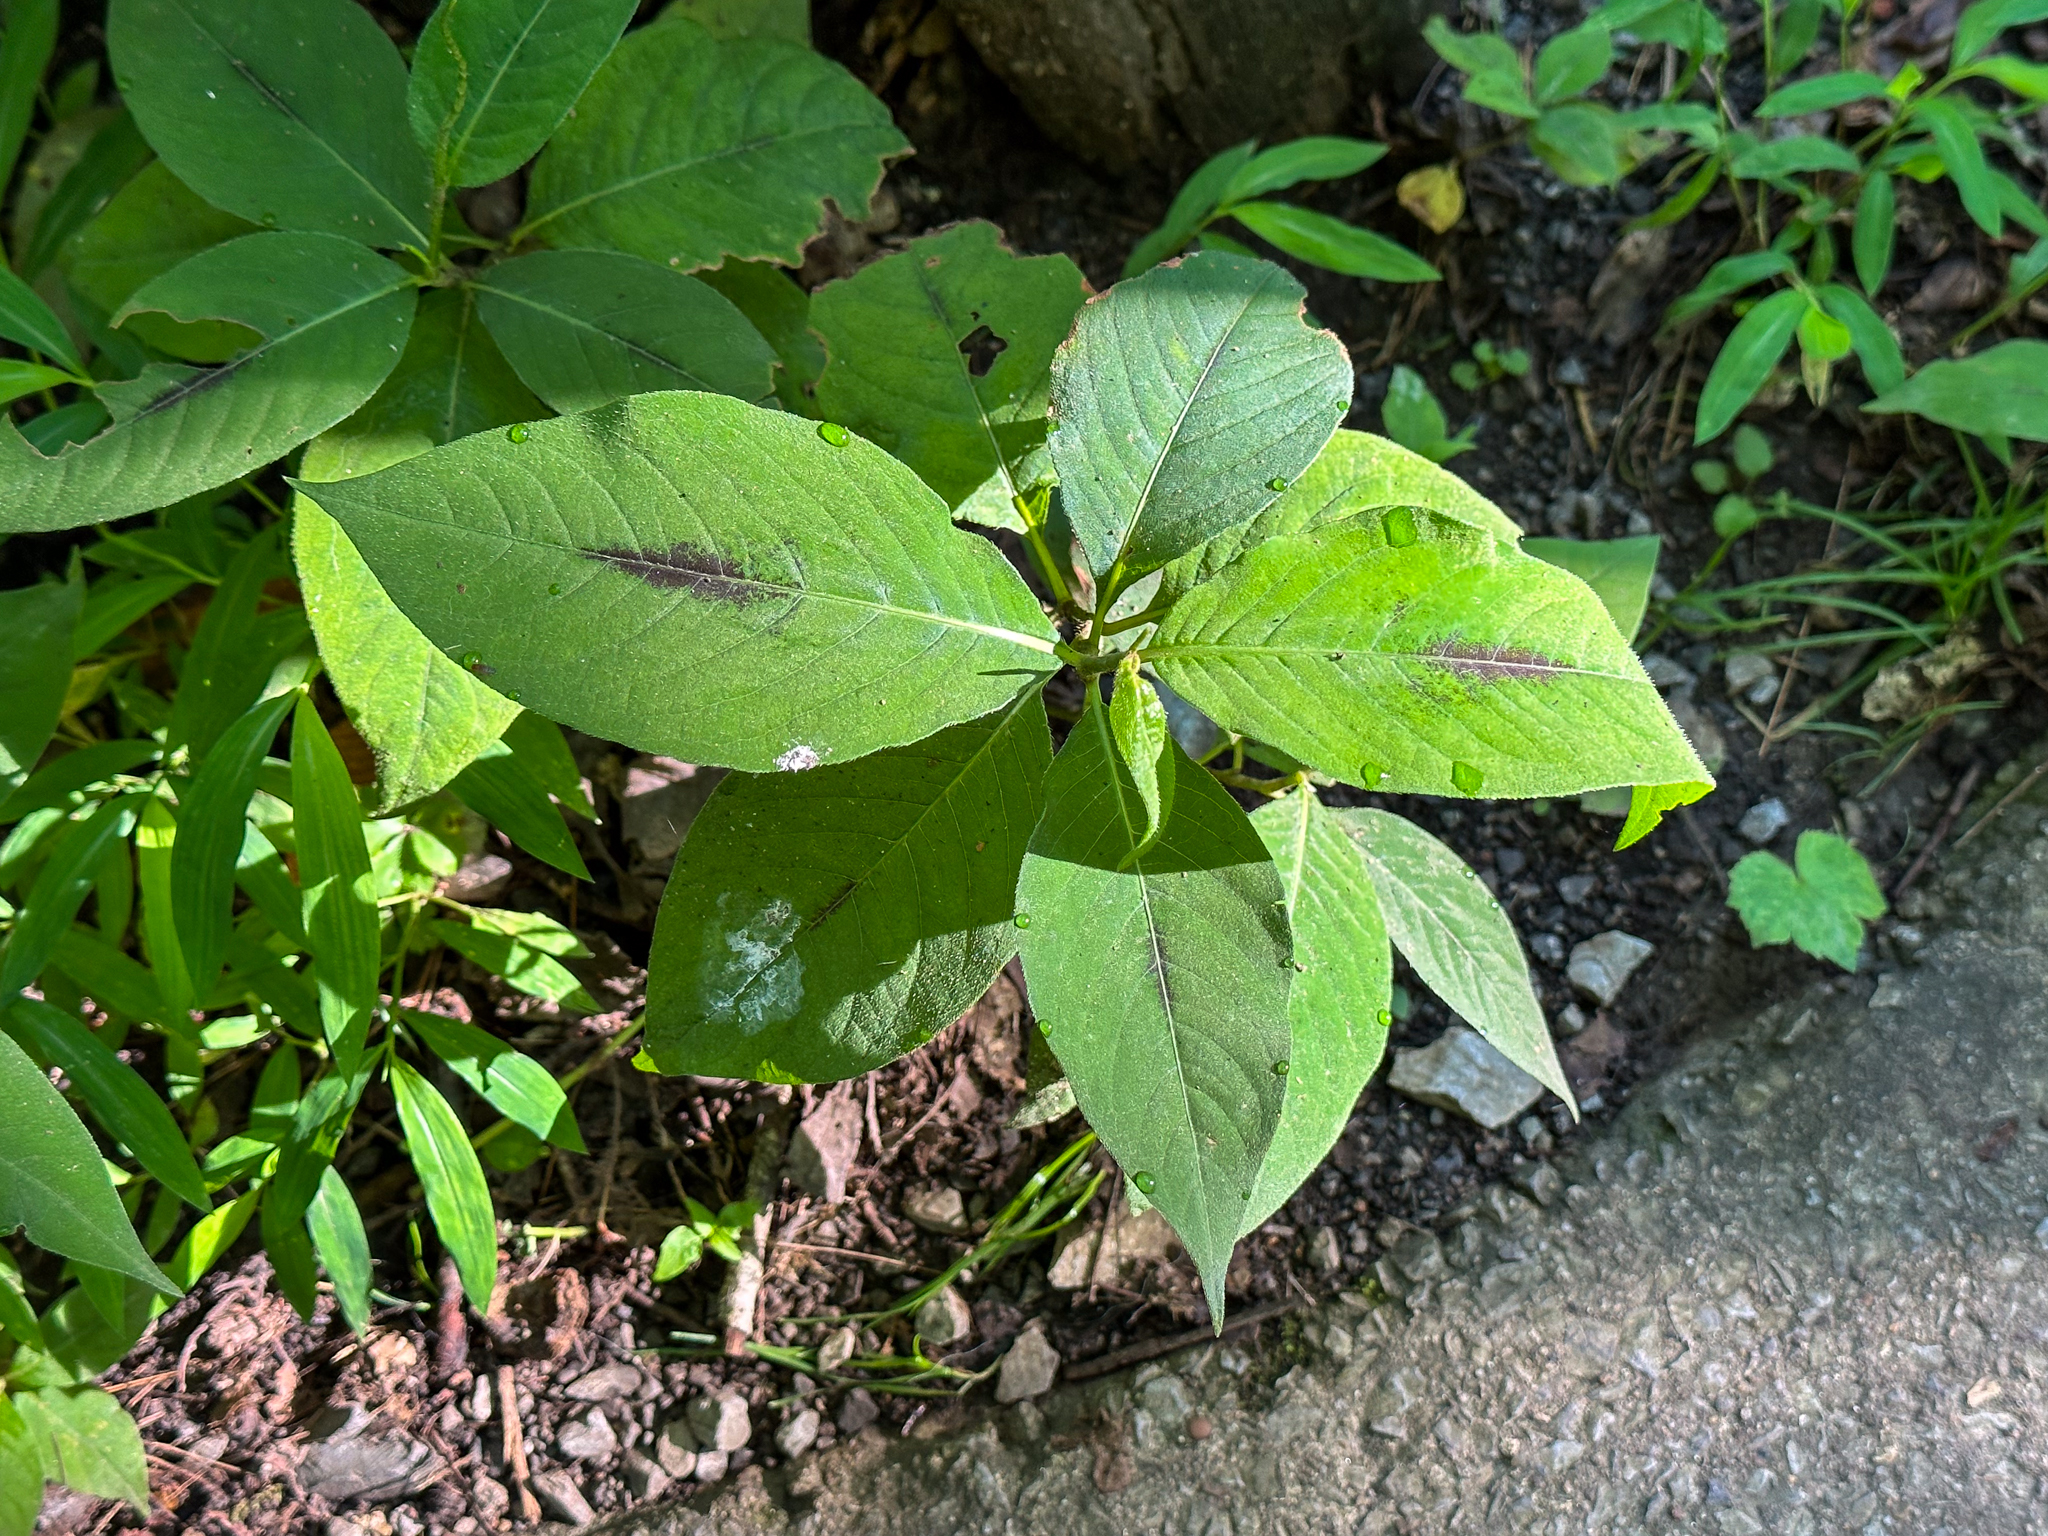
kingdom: Plantae
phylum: Tracheophyta
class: Magnoliopsida
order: Caryophyllales
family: Polygonaceae
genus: Persicaria
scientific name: Persicaria virginiana
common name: Jumpseed
